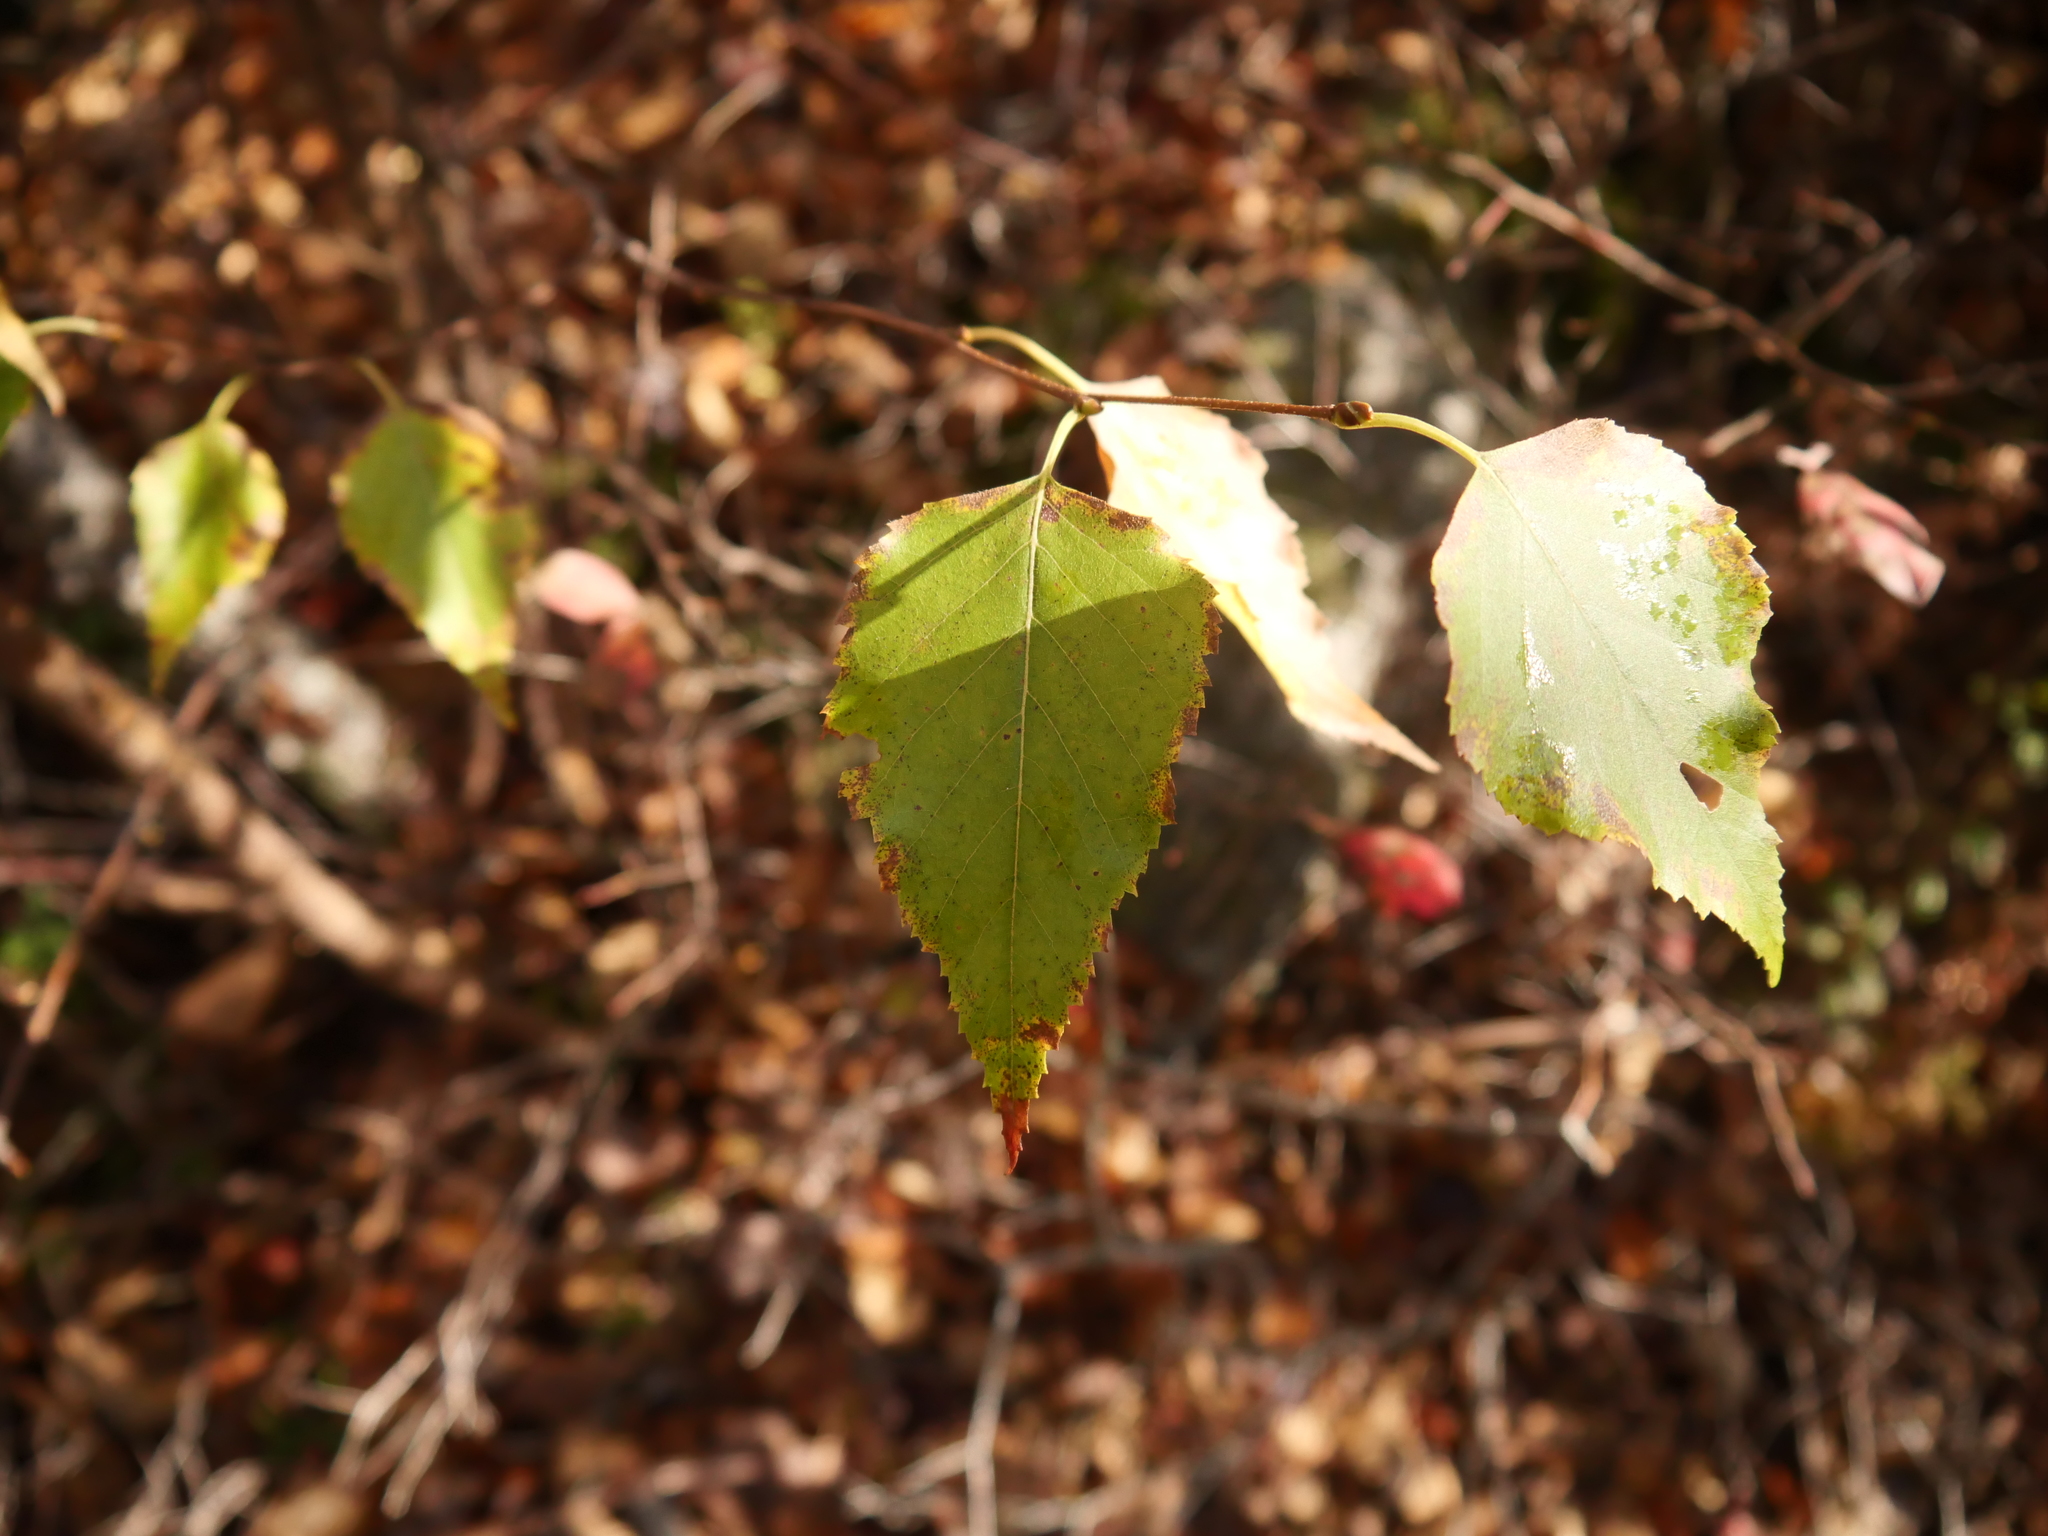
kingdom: Plantae
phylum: Tracheophyta
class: Magnoliopsida
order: Fagales
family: Betulaceae
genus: Betula
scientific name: Betula populifolia
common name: Fire birch
